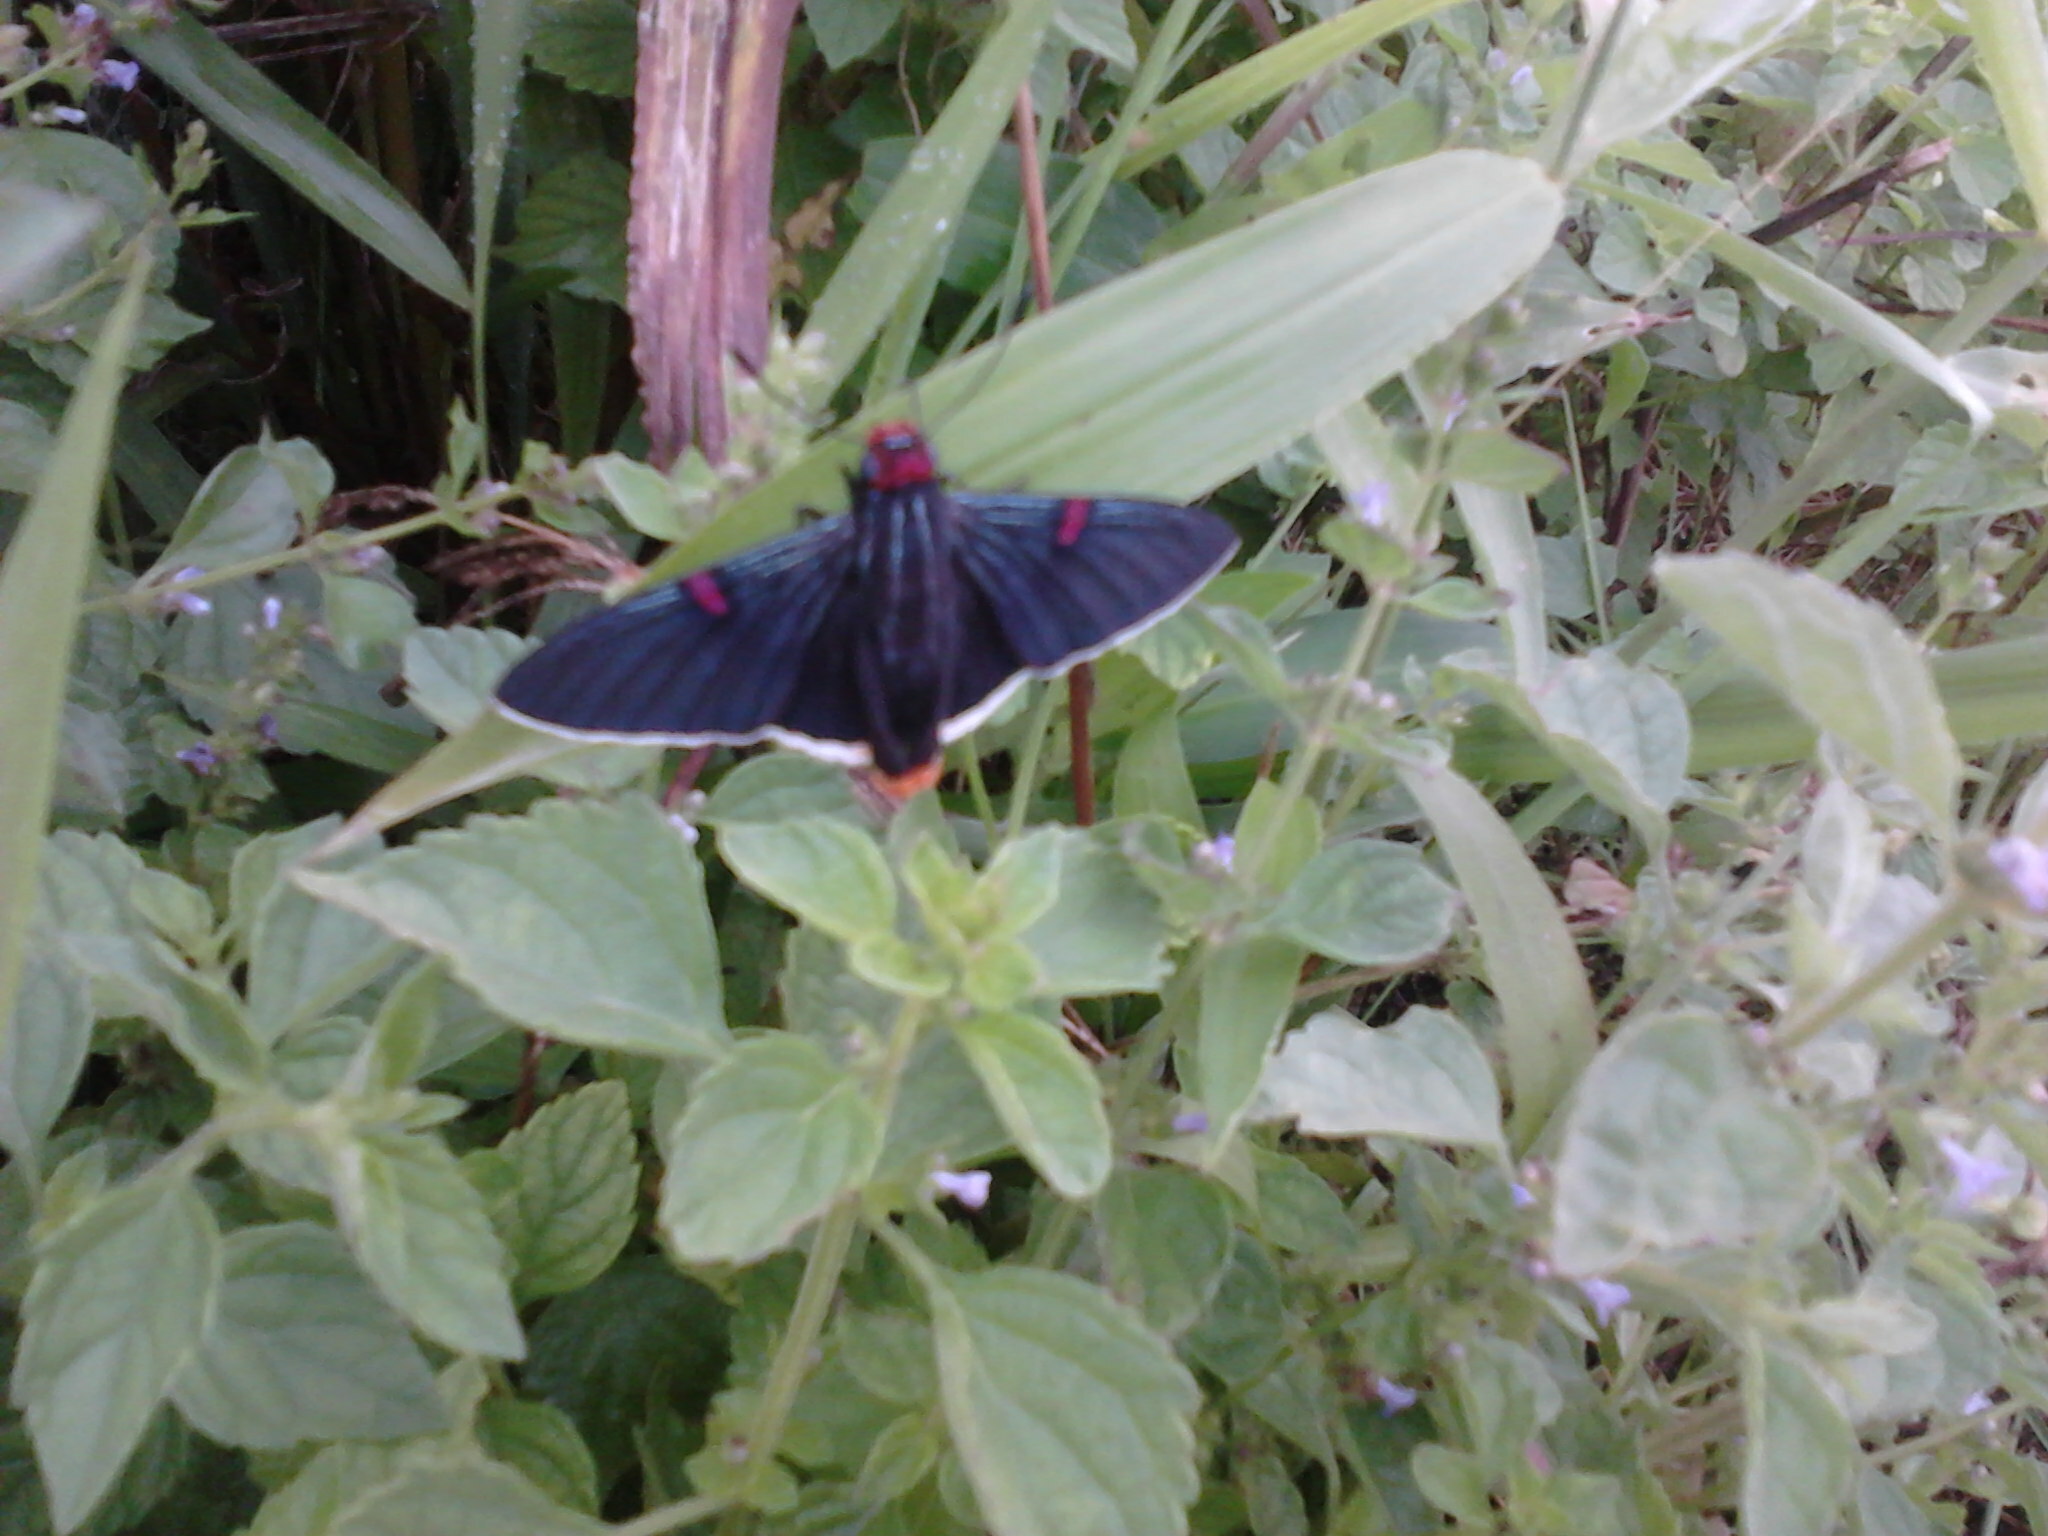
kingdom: Animalia
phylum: Arthropoda
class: Insecta
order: Lepidoptera
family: Hesperiidae
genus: Phocides
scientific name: Phocides polybius
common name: Guava skipper
